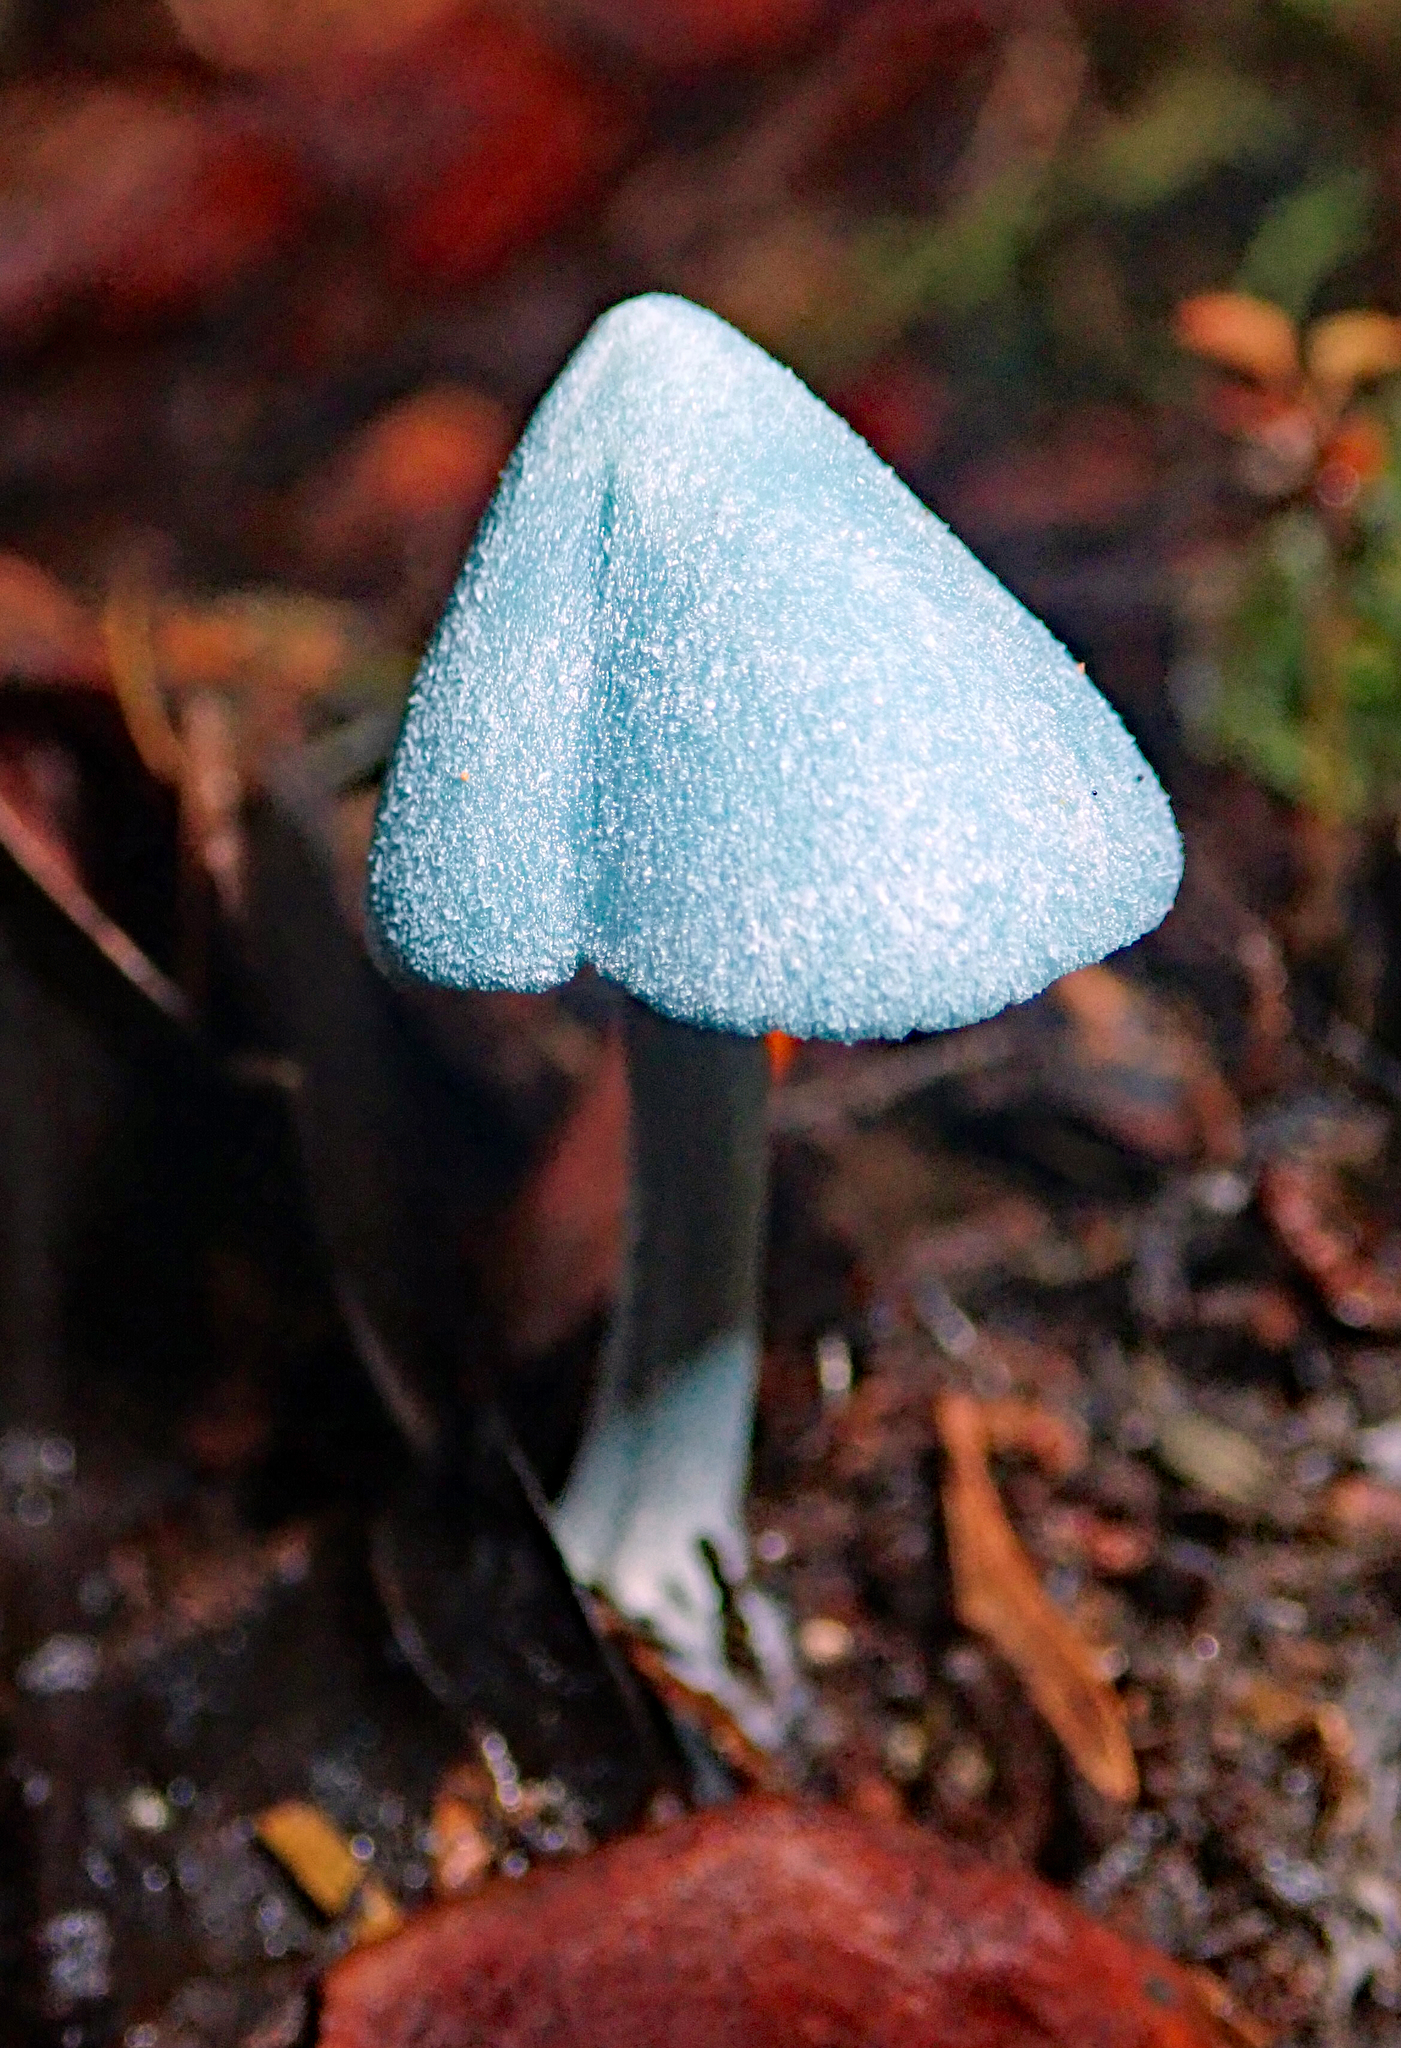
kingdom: Fungi
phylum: Basidiomycota
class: Agaricomycetes
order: Agaricales
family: Entolomataceae
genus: Entoloma
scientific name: Entoloma hochstetteri
